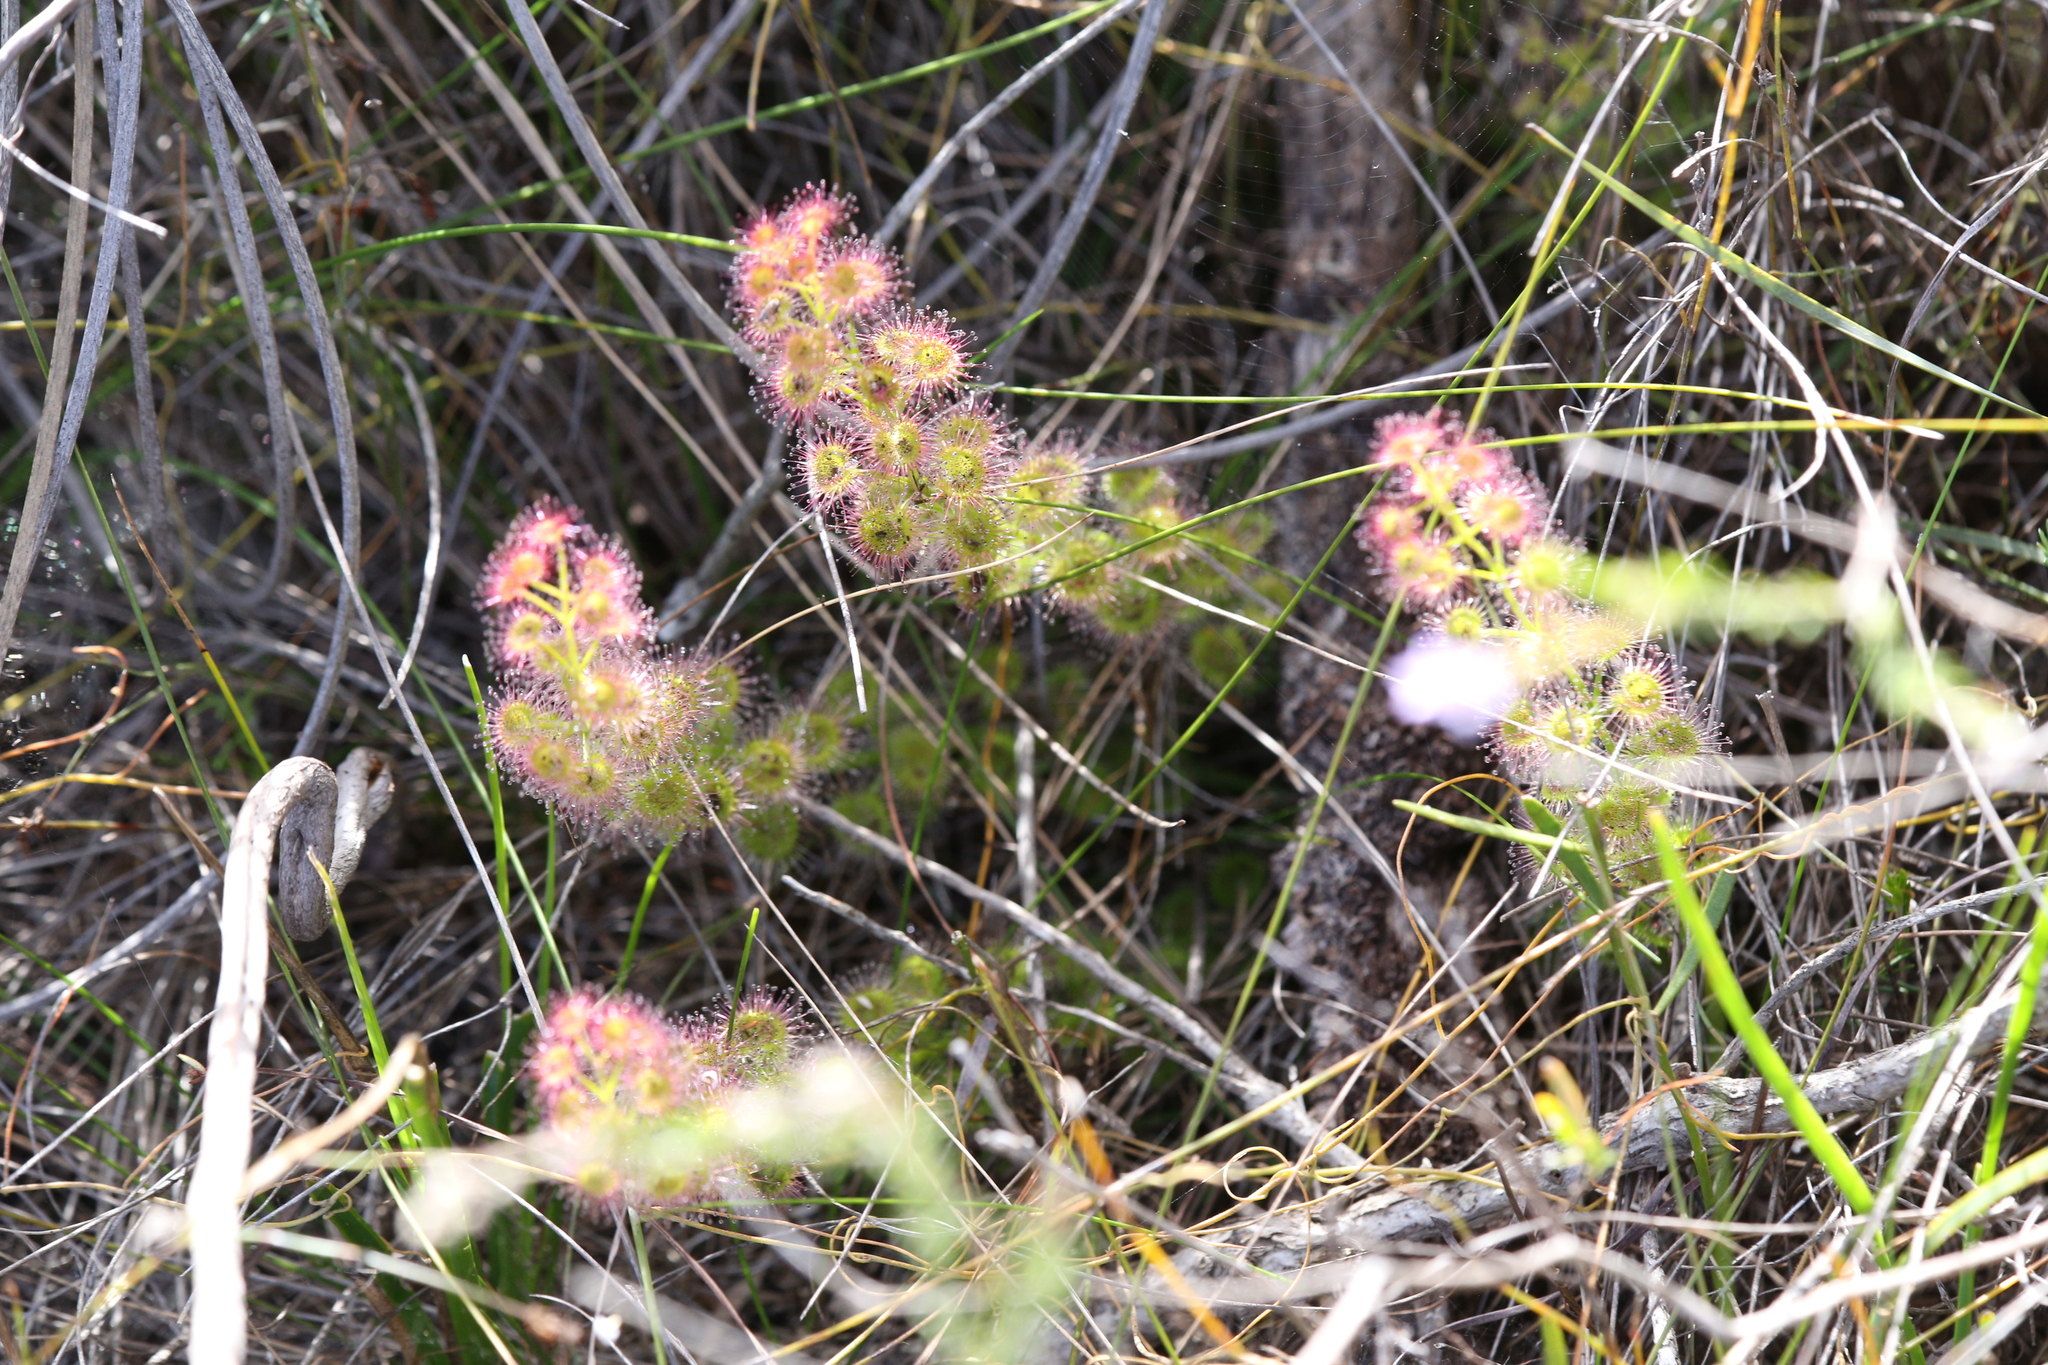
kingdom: Plantae
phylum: Tracheophyta
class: Magnoliopsida
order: Caryophyllales
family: Droseraceae
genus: Drosera
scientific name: Drosera stolonifera
